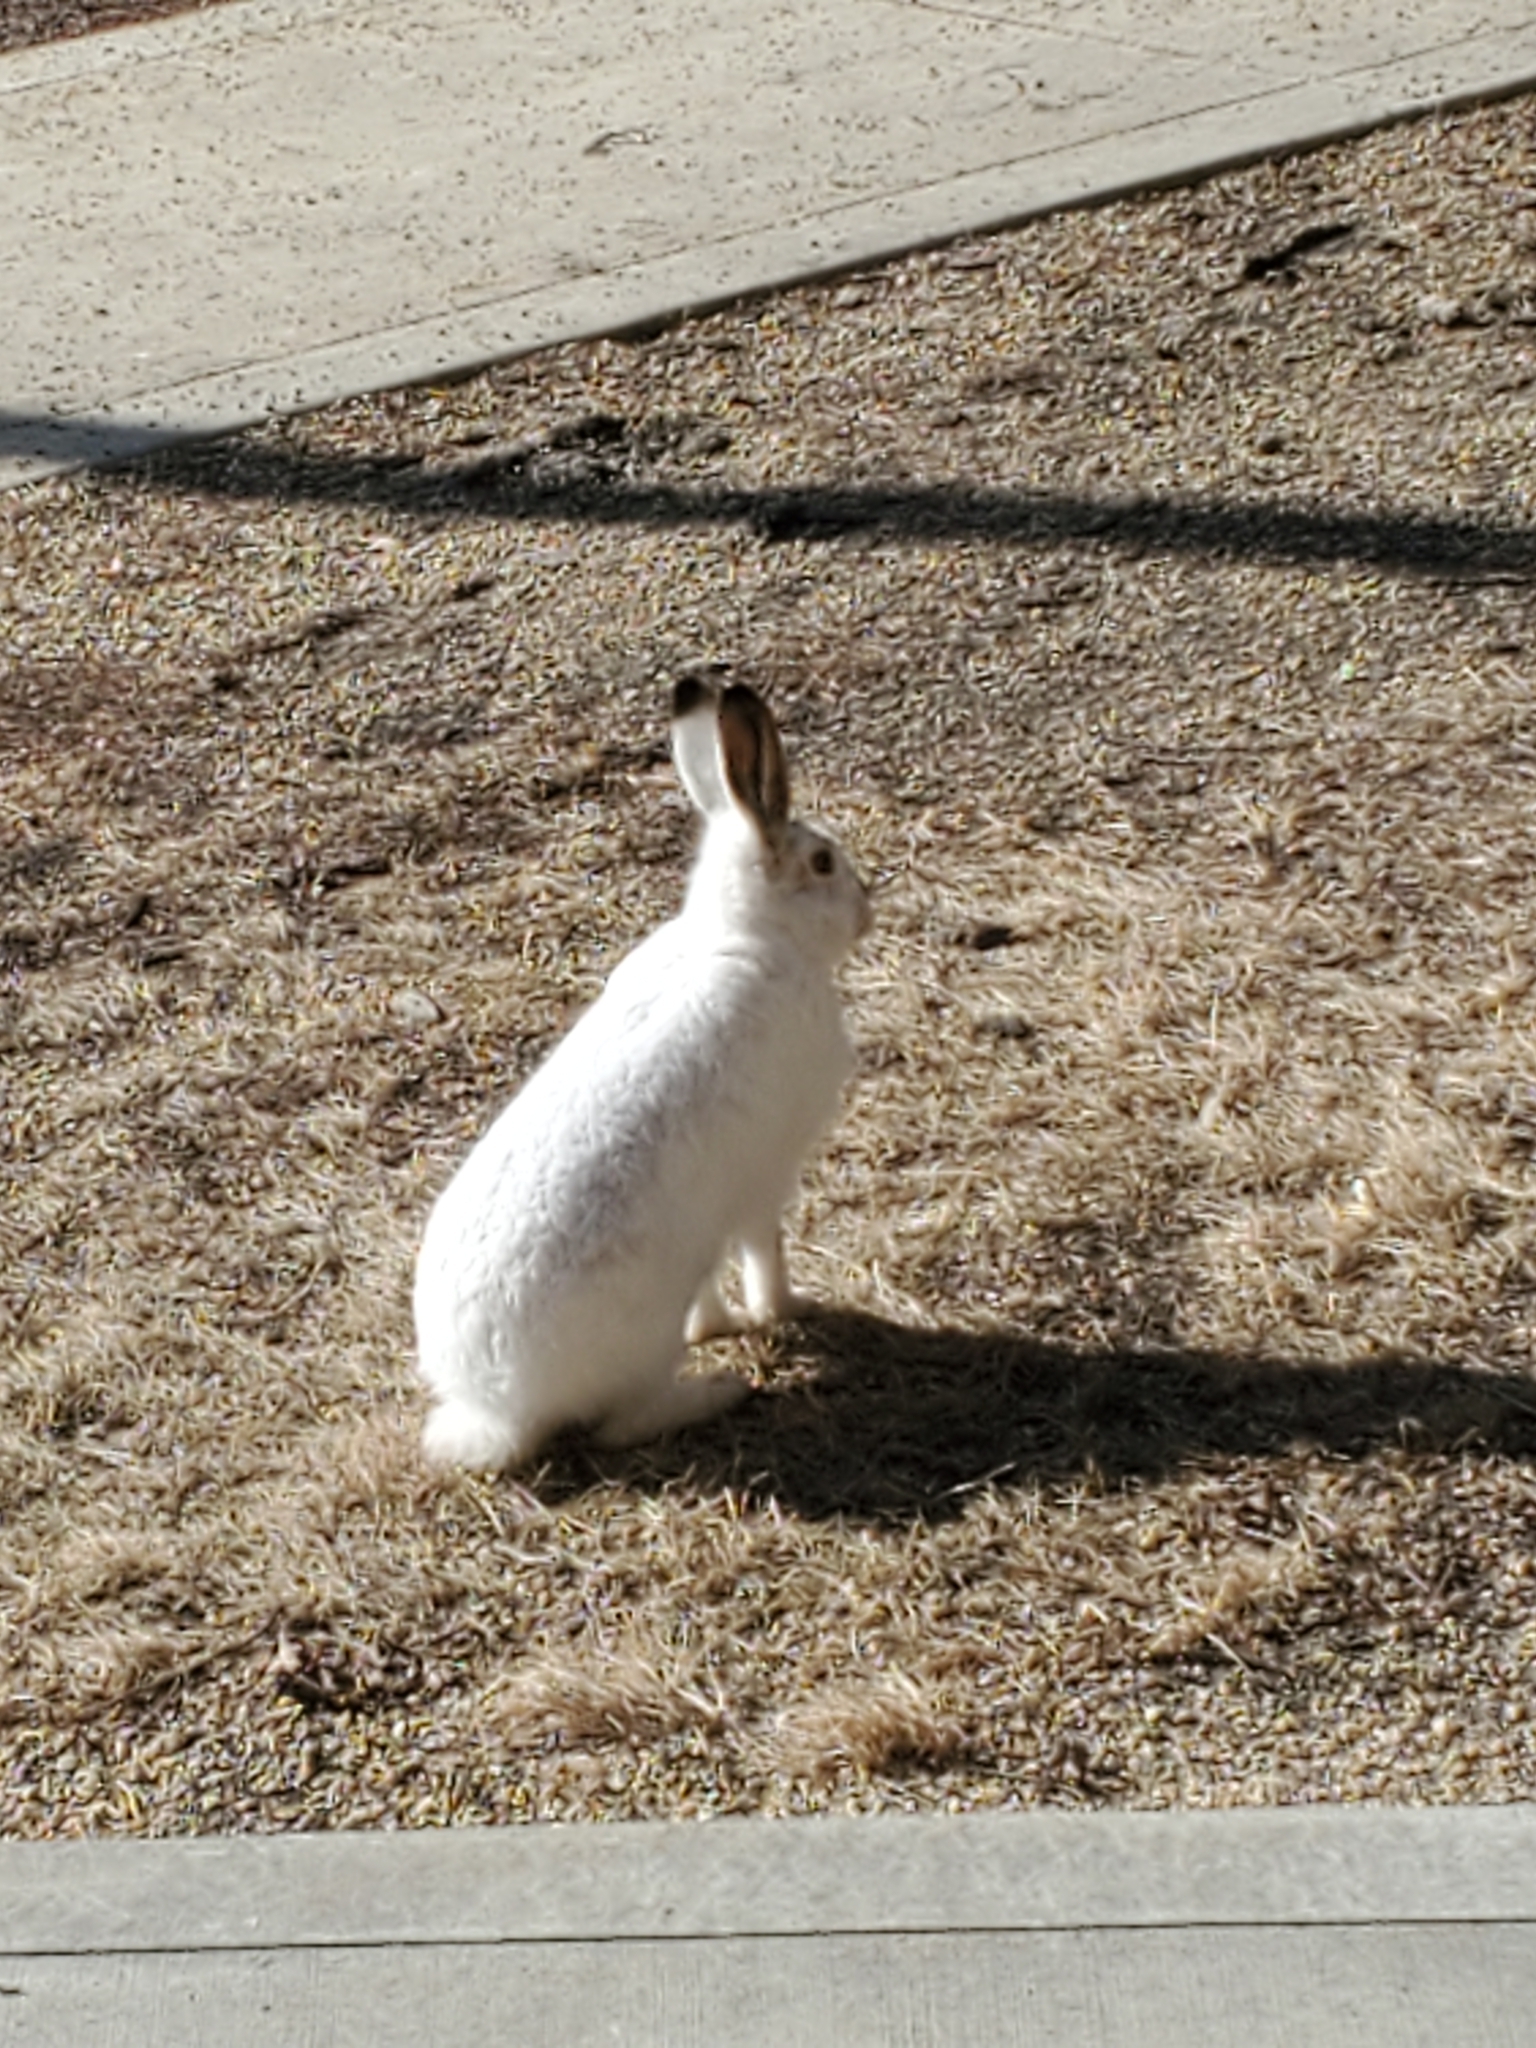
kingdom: Animalia
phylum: Chordata
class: Mammalia
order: Lagomorpha
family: Leporidae
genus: Lepus
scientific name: Lepus townsendii
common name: White-tailed jackrabbit
